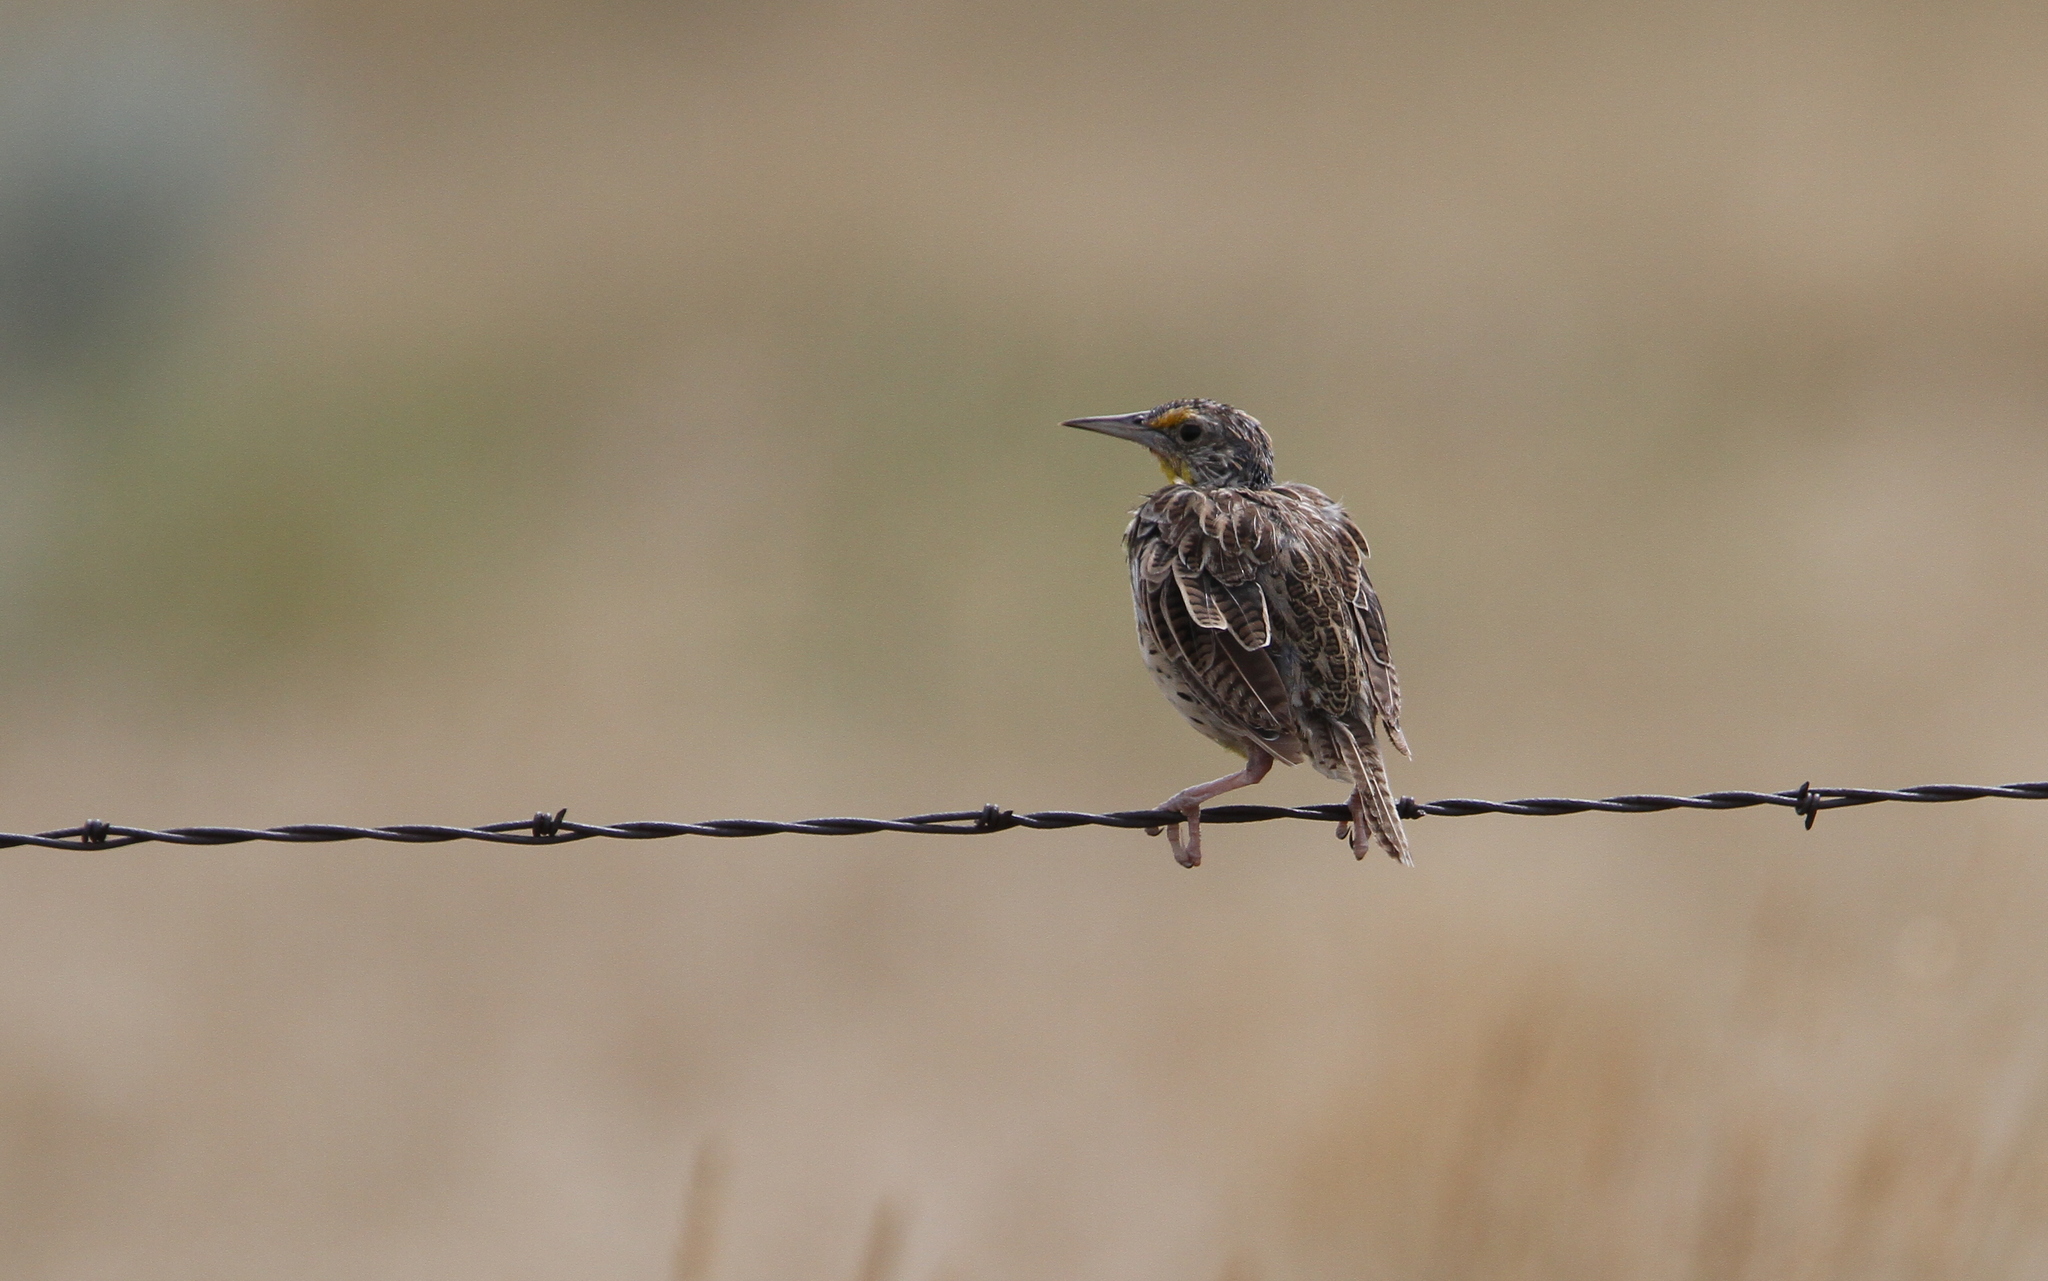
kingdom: Animalia
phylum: Chordata
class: Aves
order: Passeriformes
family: Icteridae
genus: Sturnella
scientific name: Sturnella neglecta
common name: Western meadowlark
